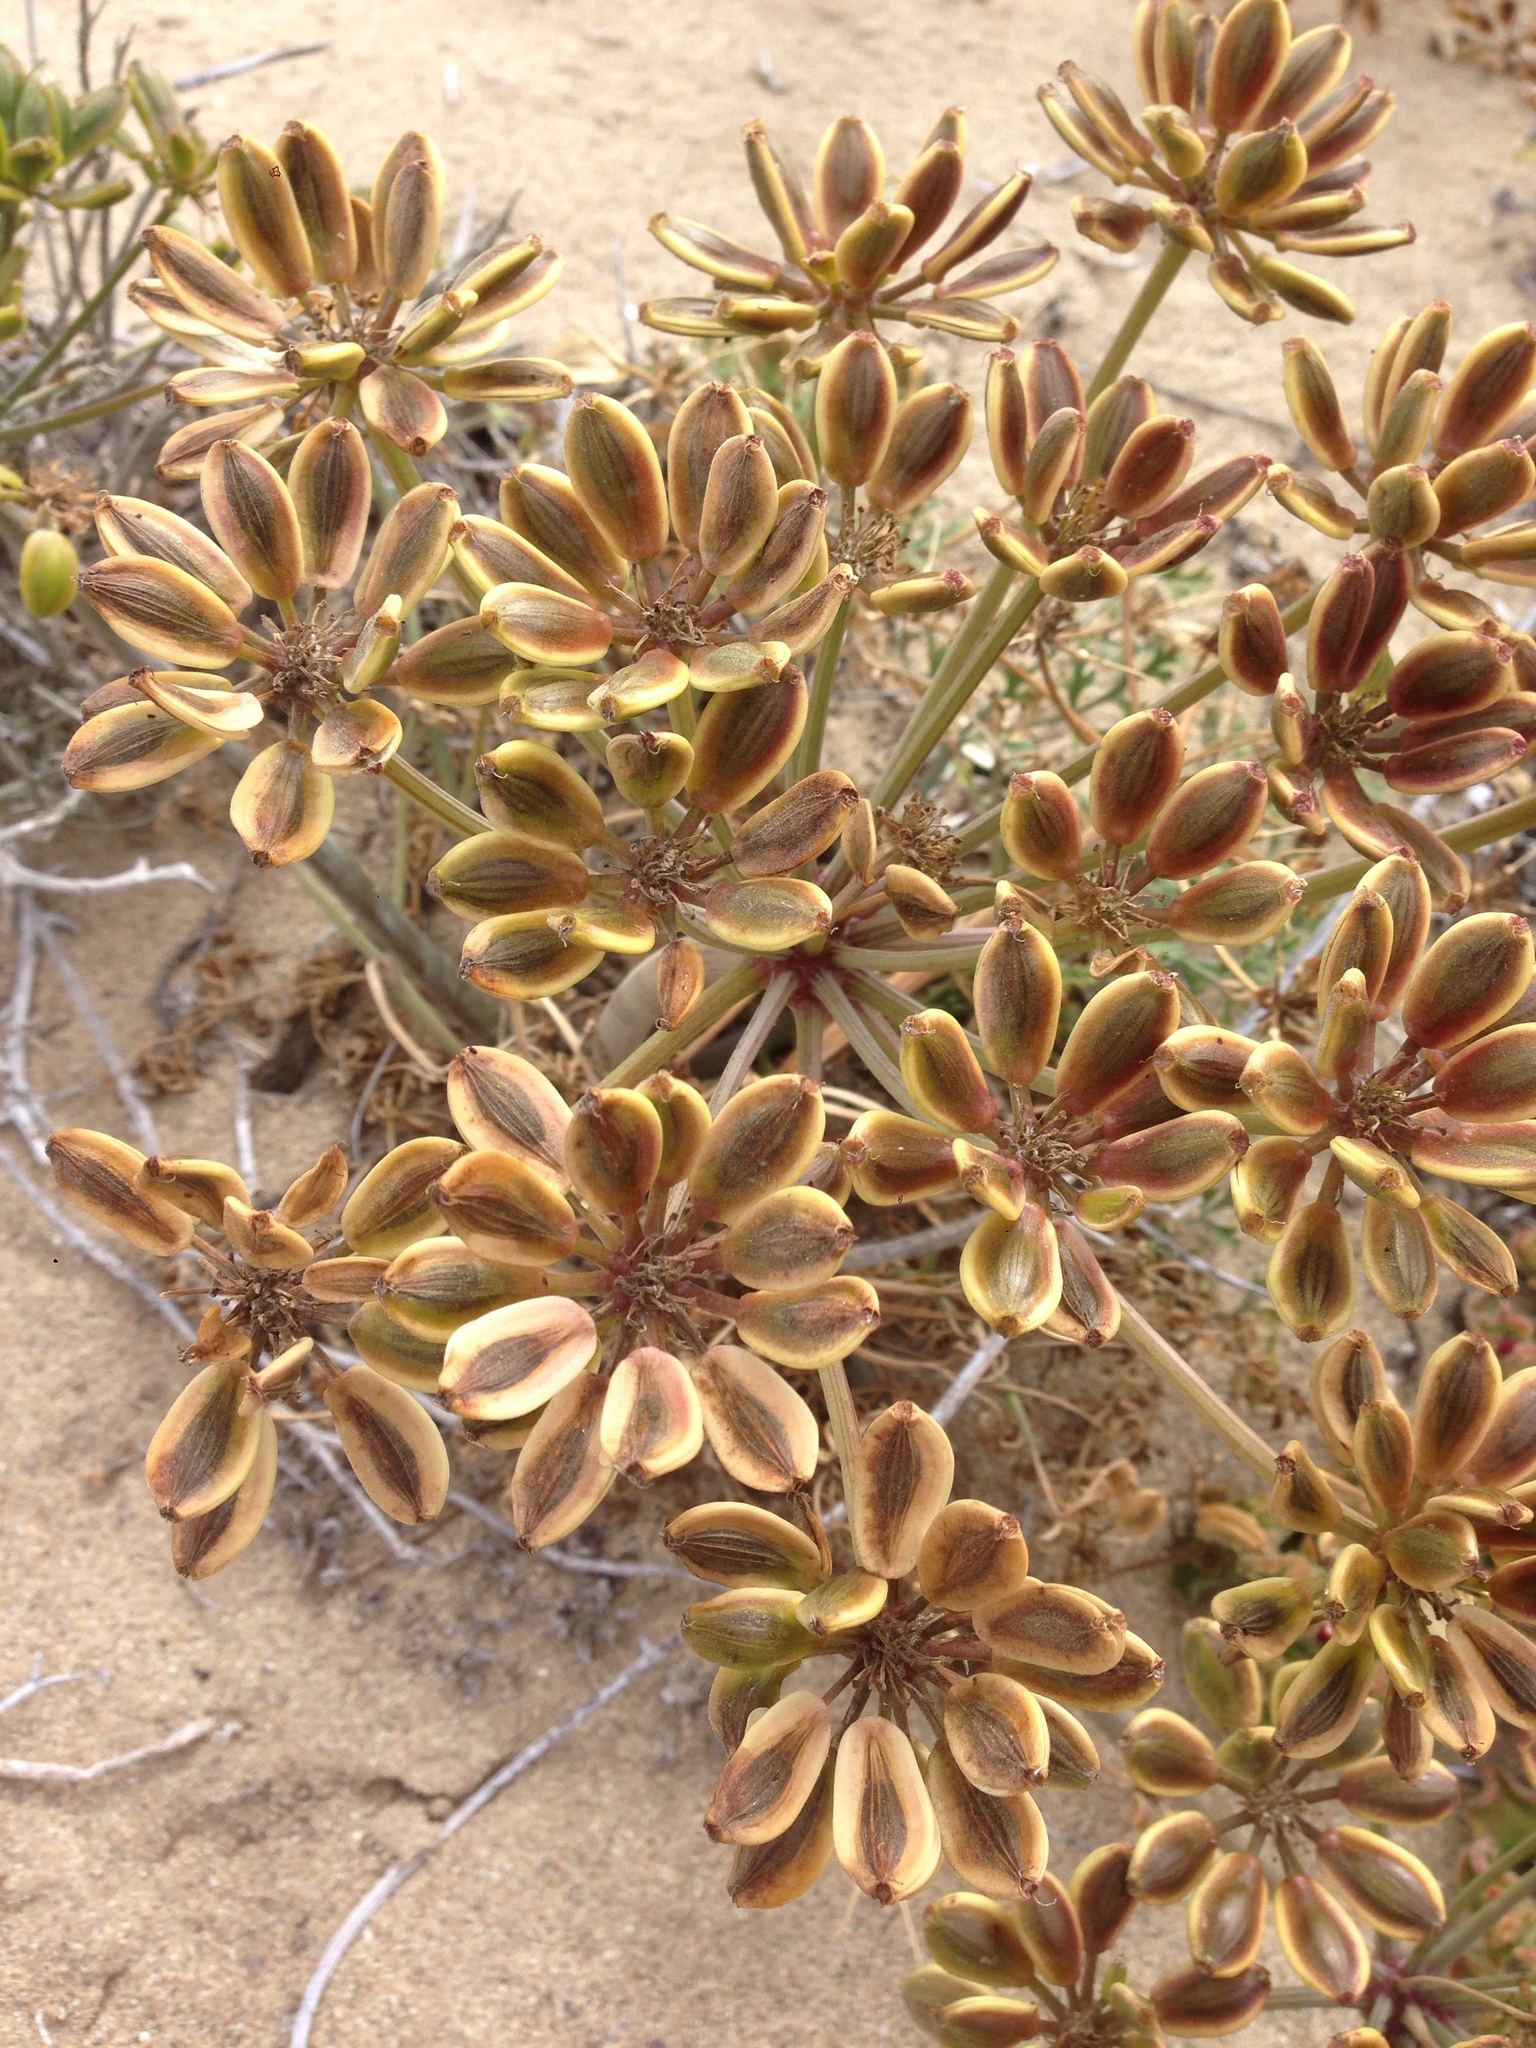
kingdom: Plantae
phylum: Tracheophyta
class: Magnoliopsida
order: Apiales
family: Apiaceae
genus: Lomatium
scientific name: Lomatium insulare
